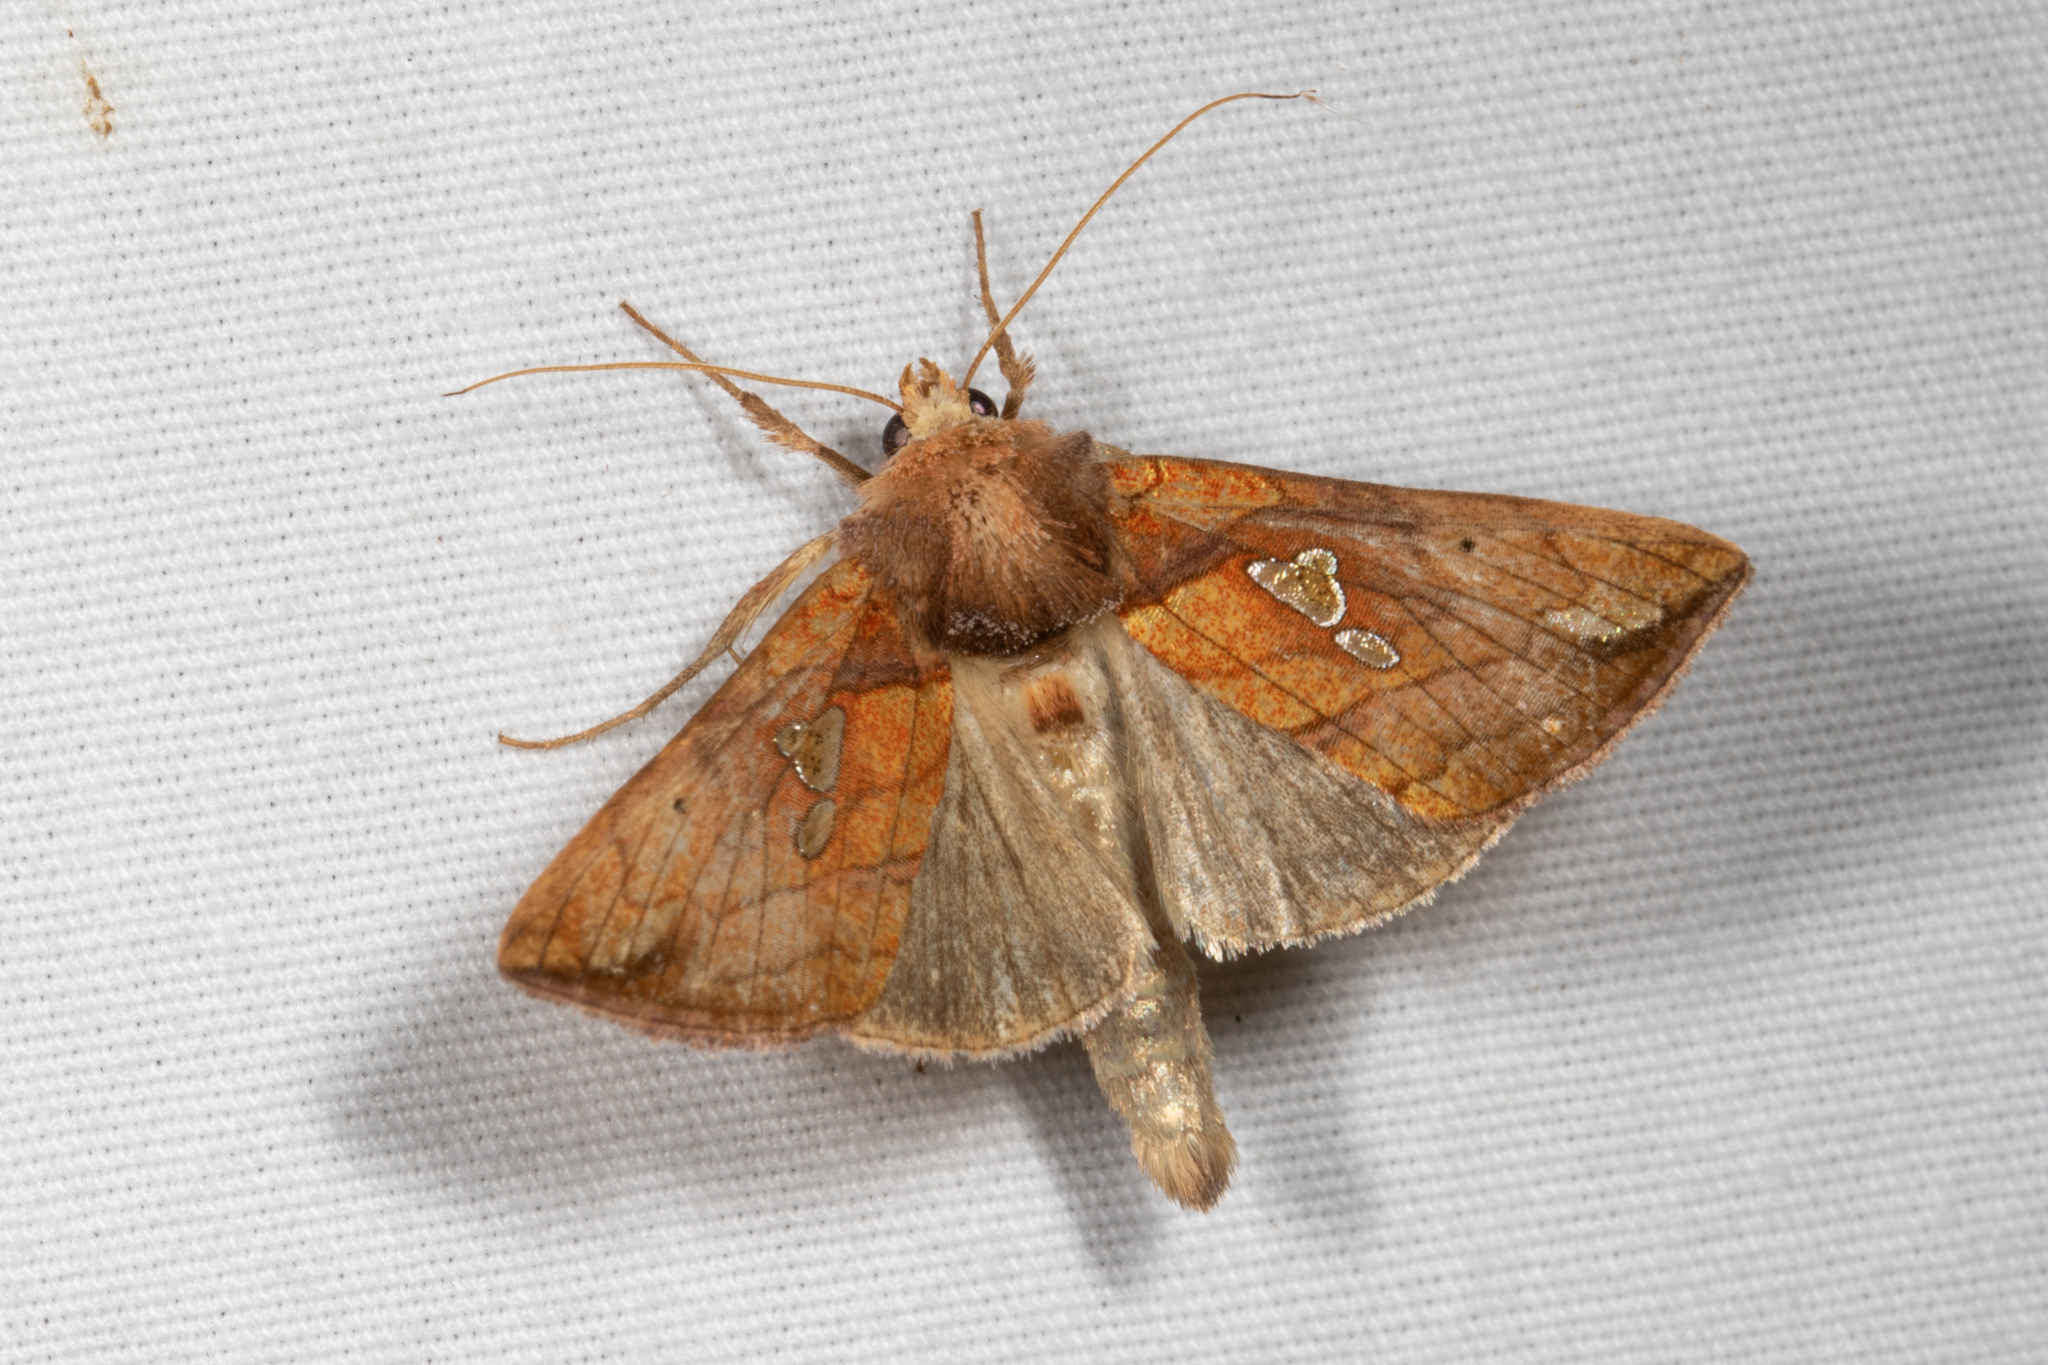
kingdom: Animalia
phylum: Arthropoda
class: Insecta
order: Lepidoptera
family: Noctuidae
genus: Plusia
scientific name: Plusia putnami
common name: Lempke's gold spot
